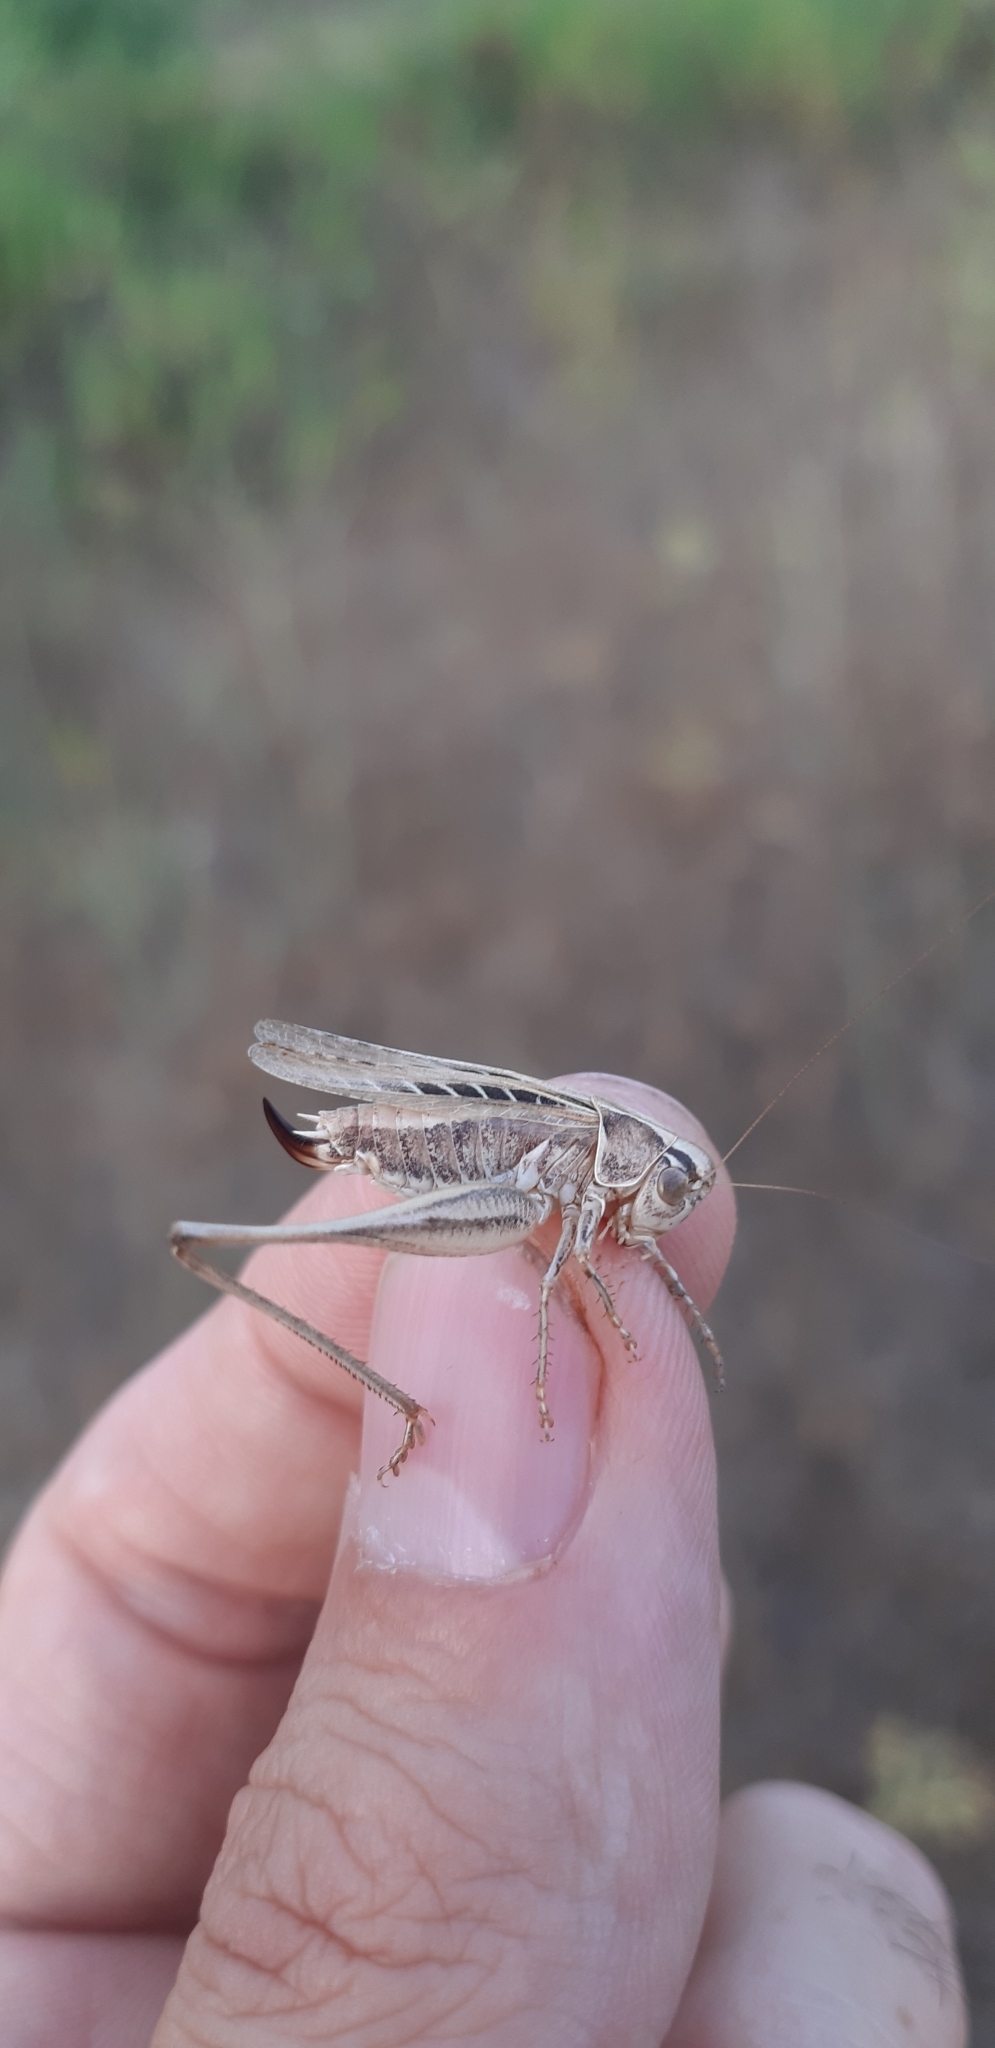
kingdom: Animalia
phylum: Arthropoda
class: Insecta
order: Orthoptera
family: Tettigoniidae
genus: Tessellana
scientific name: Tessellana tessellata
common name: Grasshopper
